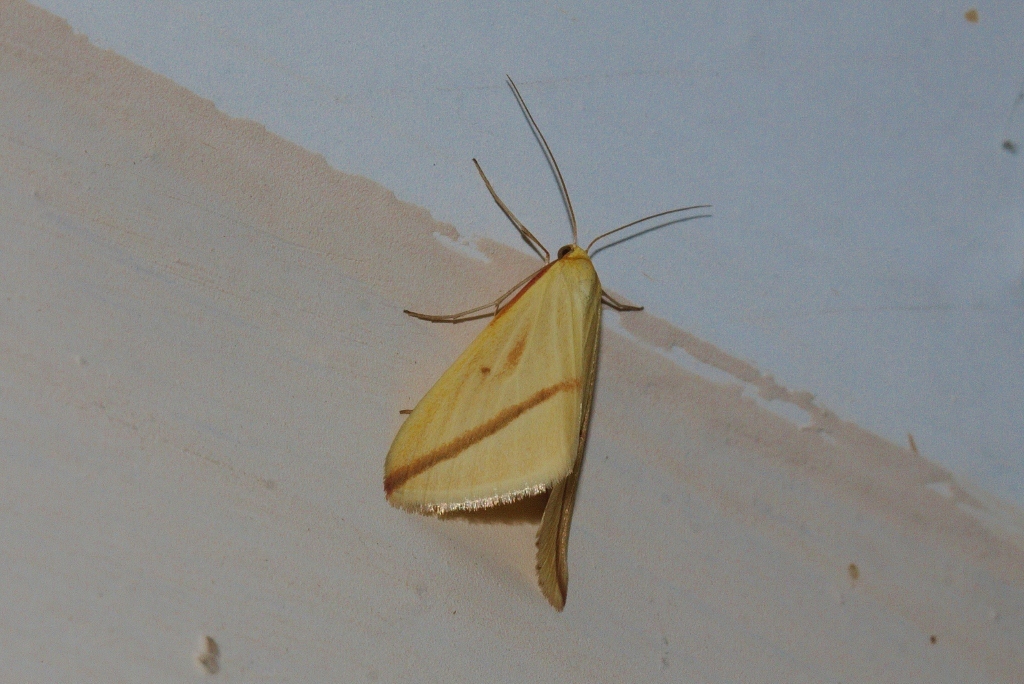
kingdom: Animalia
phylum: Arthropoda
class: Insecta
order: Lepidoptera
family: Geometridae
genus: Rhodometra
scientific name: Rhodometra sacraria
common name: Vestal
